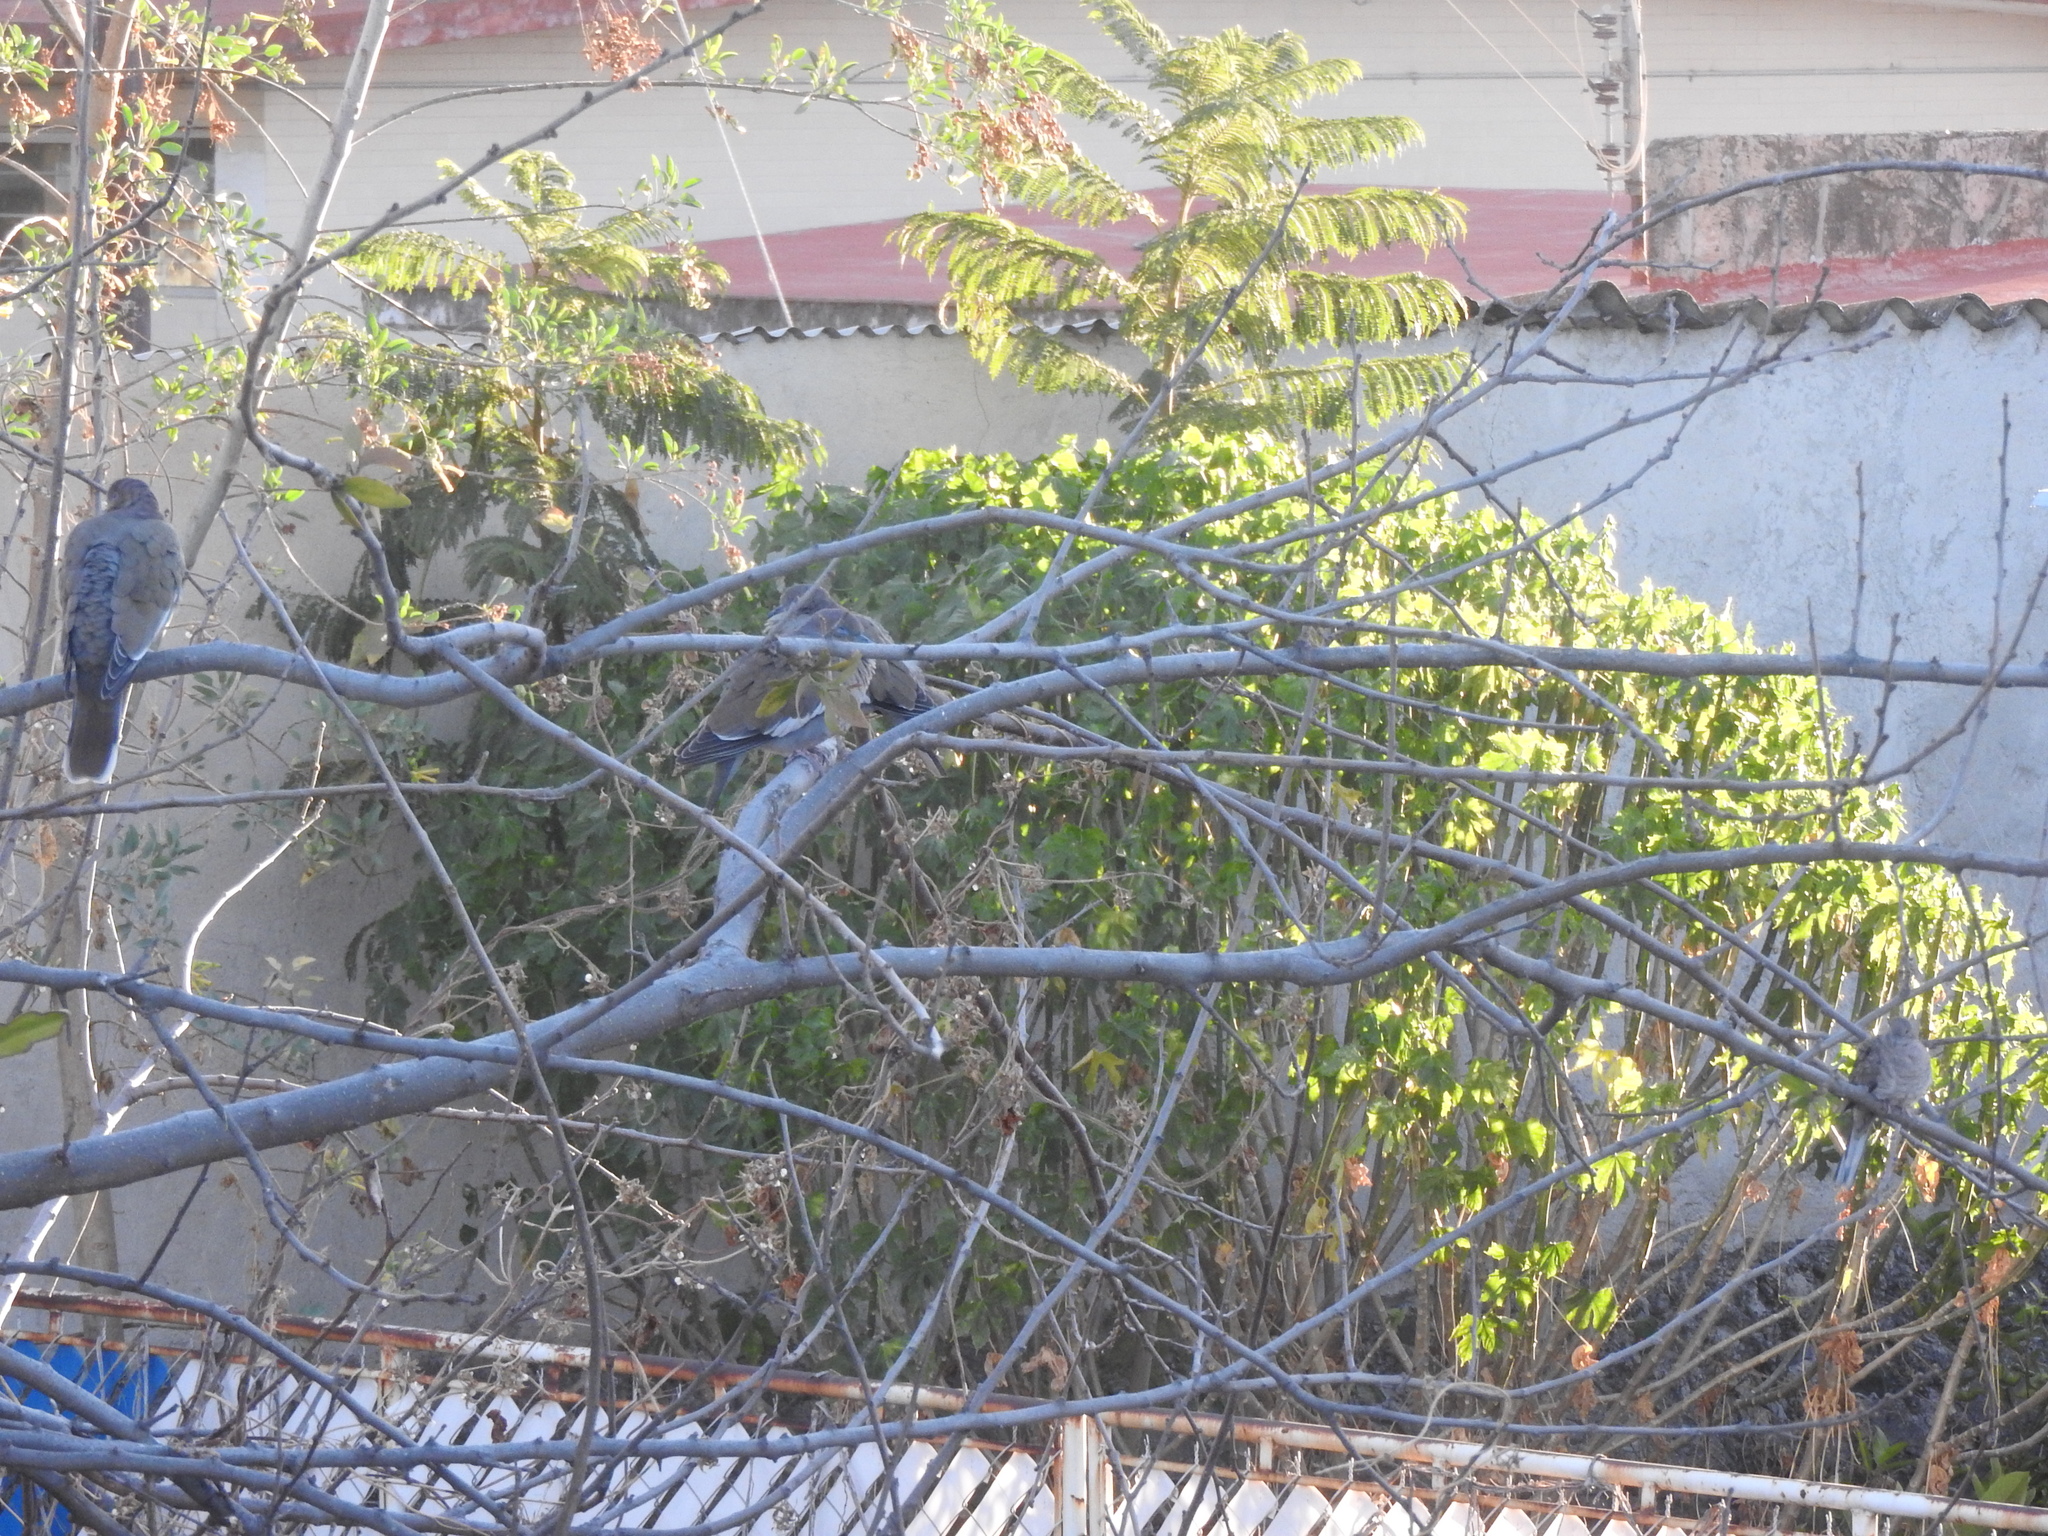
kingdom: Animalia
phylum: Chordata
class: Aves
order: Columbiformes
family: Columbidae
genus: Zenaida
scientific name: Zenaida asiatica
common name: White-winged dove
